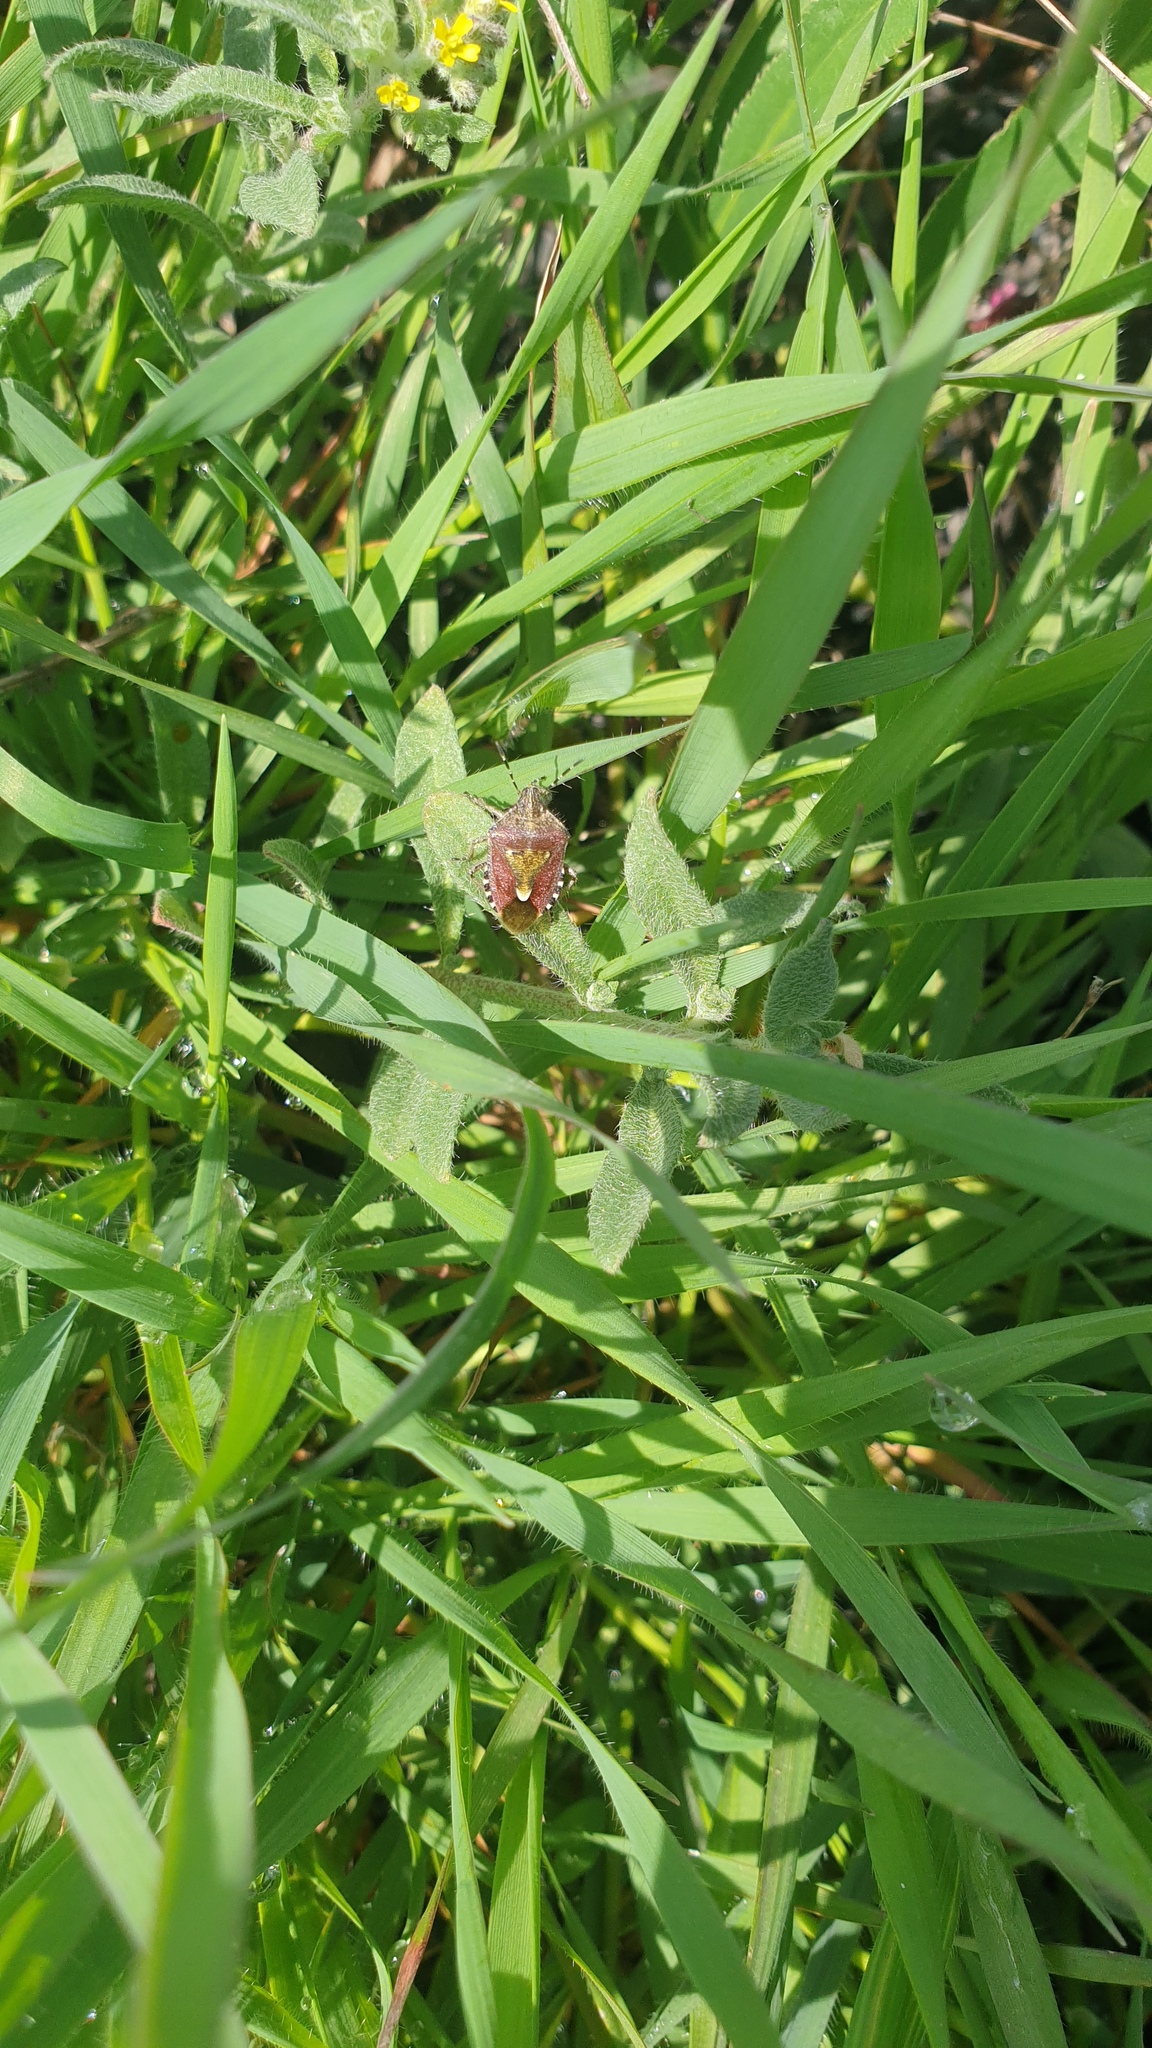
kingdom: Animalia
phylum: Arthropoda
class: Insecta
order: Hemiptera
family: Pentatomidae
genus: Dolycoris
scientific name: Dolycoris baccarum
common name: Sloe bug
